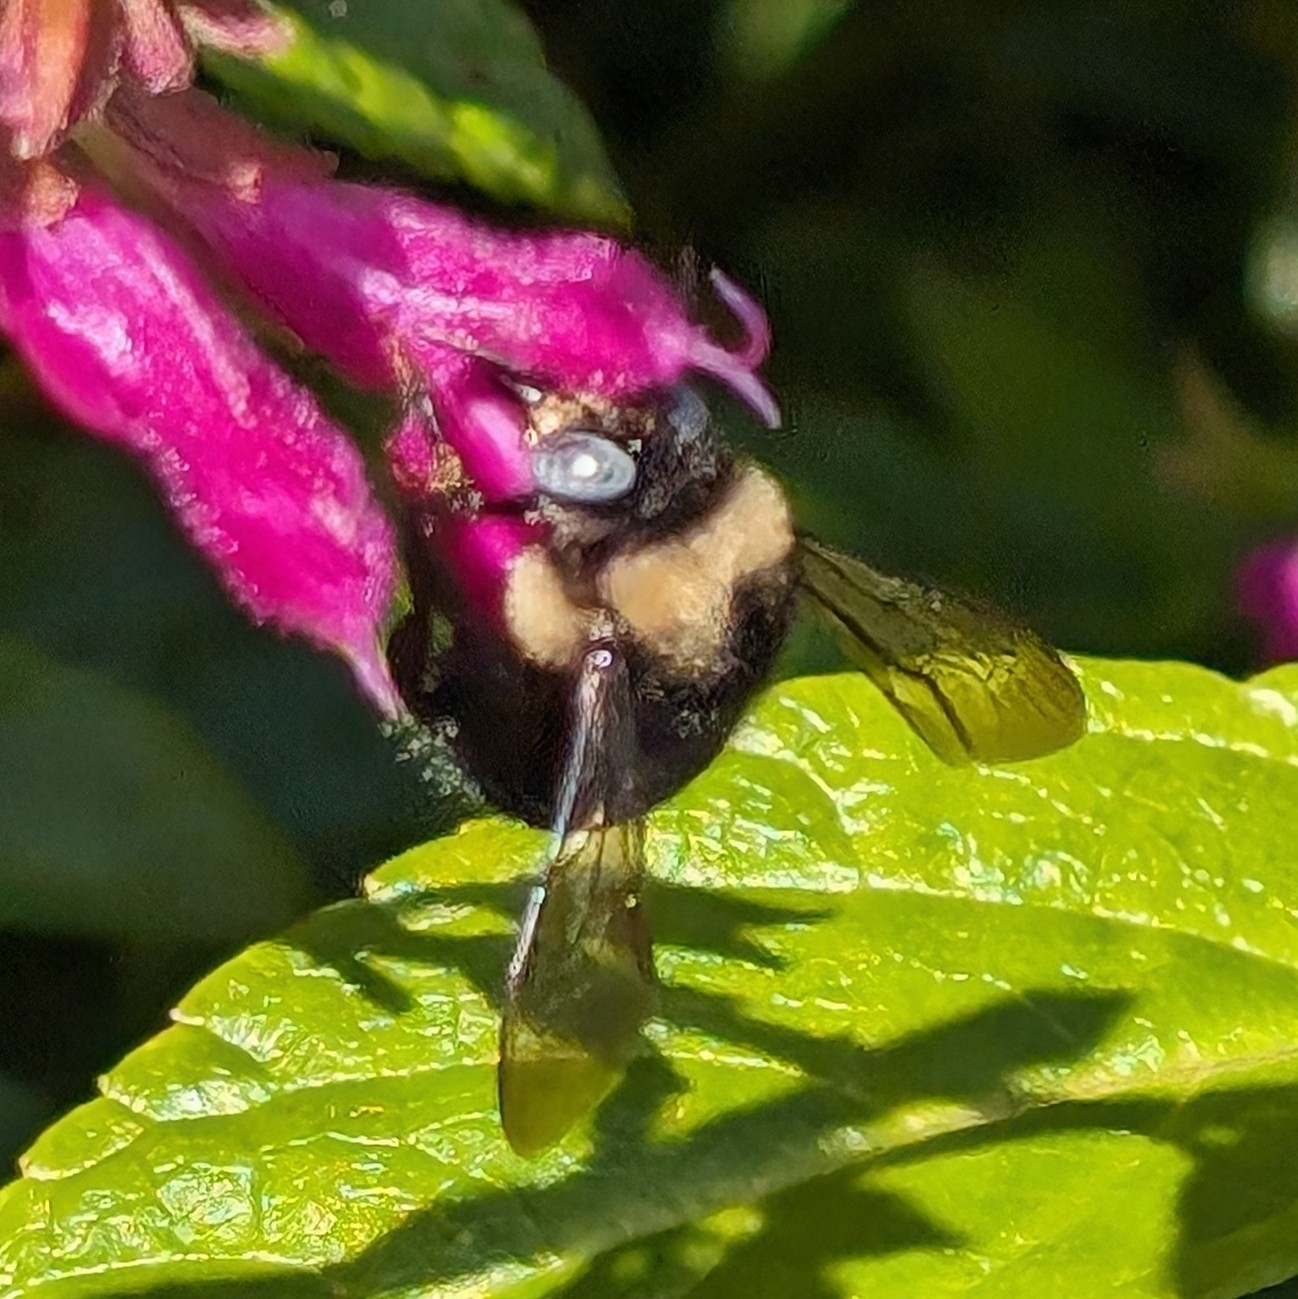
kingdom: Animalia
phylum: Arthropoda
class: Insecta
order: Hymenoptera
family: Apidae
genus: Xylocopa
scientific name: Xylocopa tabaniformis
